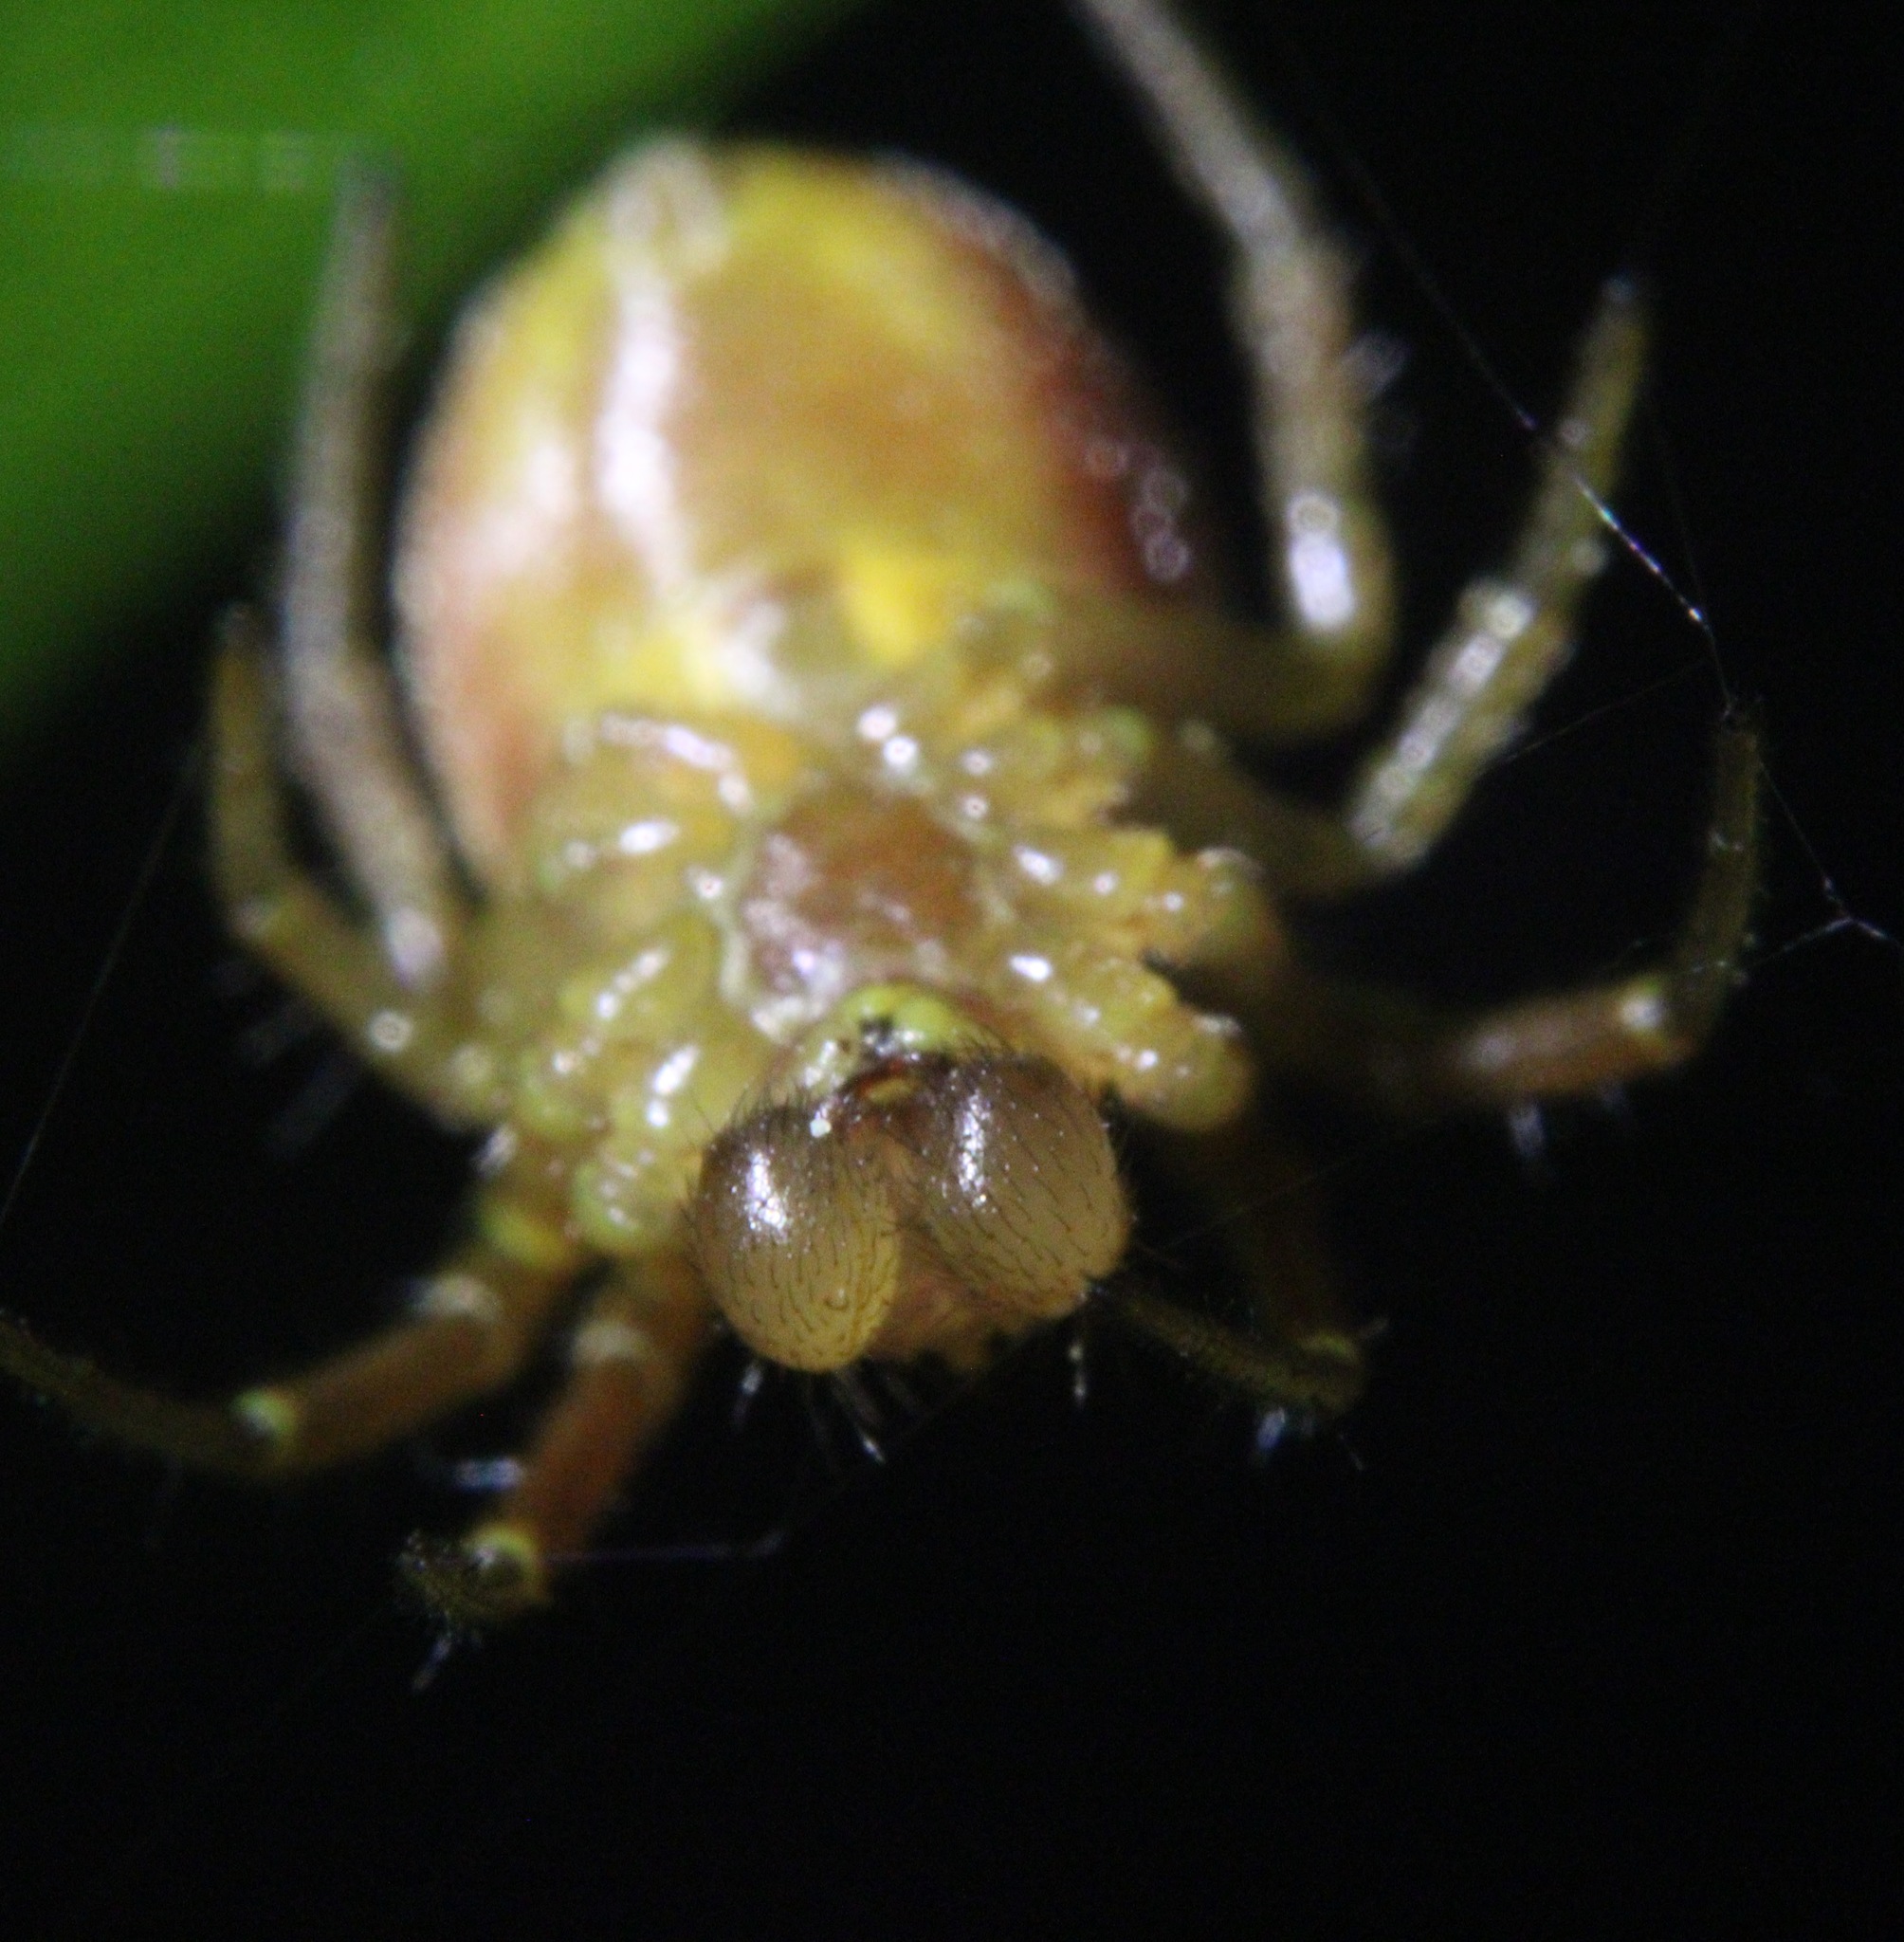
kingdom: Animalia
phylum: Arthropoda
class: Arachnida
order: Araneae
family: Araneidae
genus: Araniella
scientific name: Araniella displicata
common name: Sixspotted orb weaver
